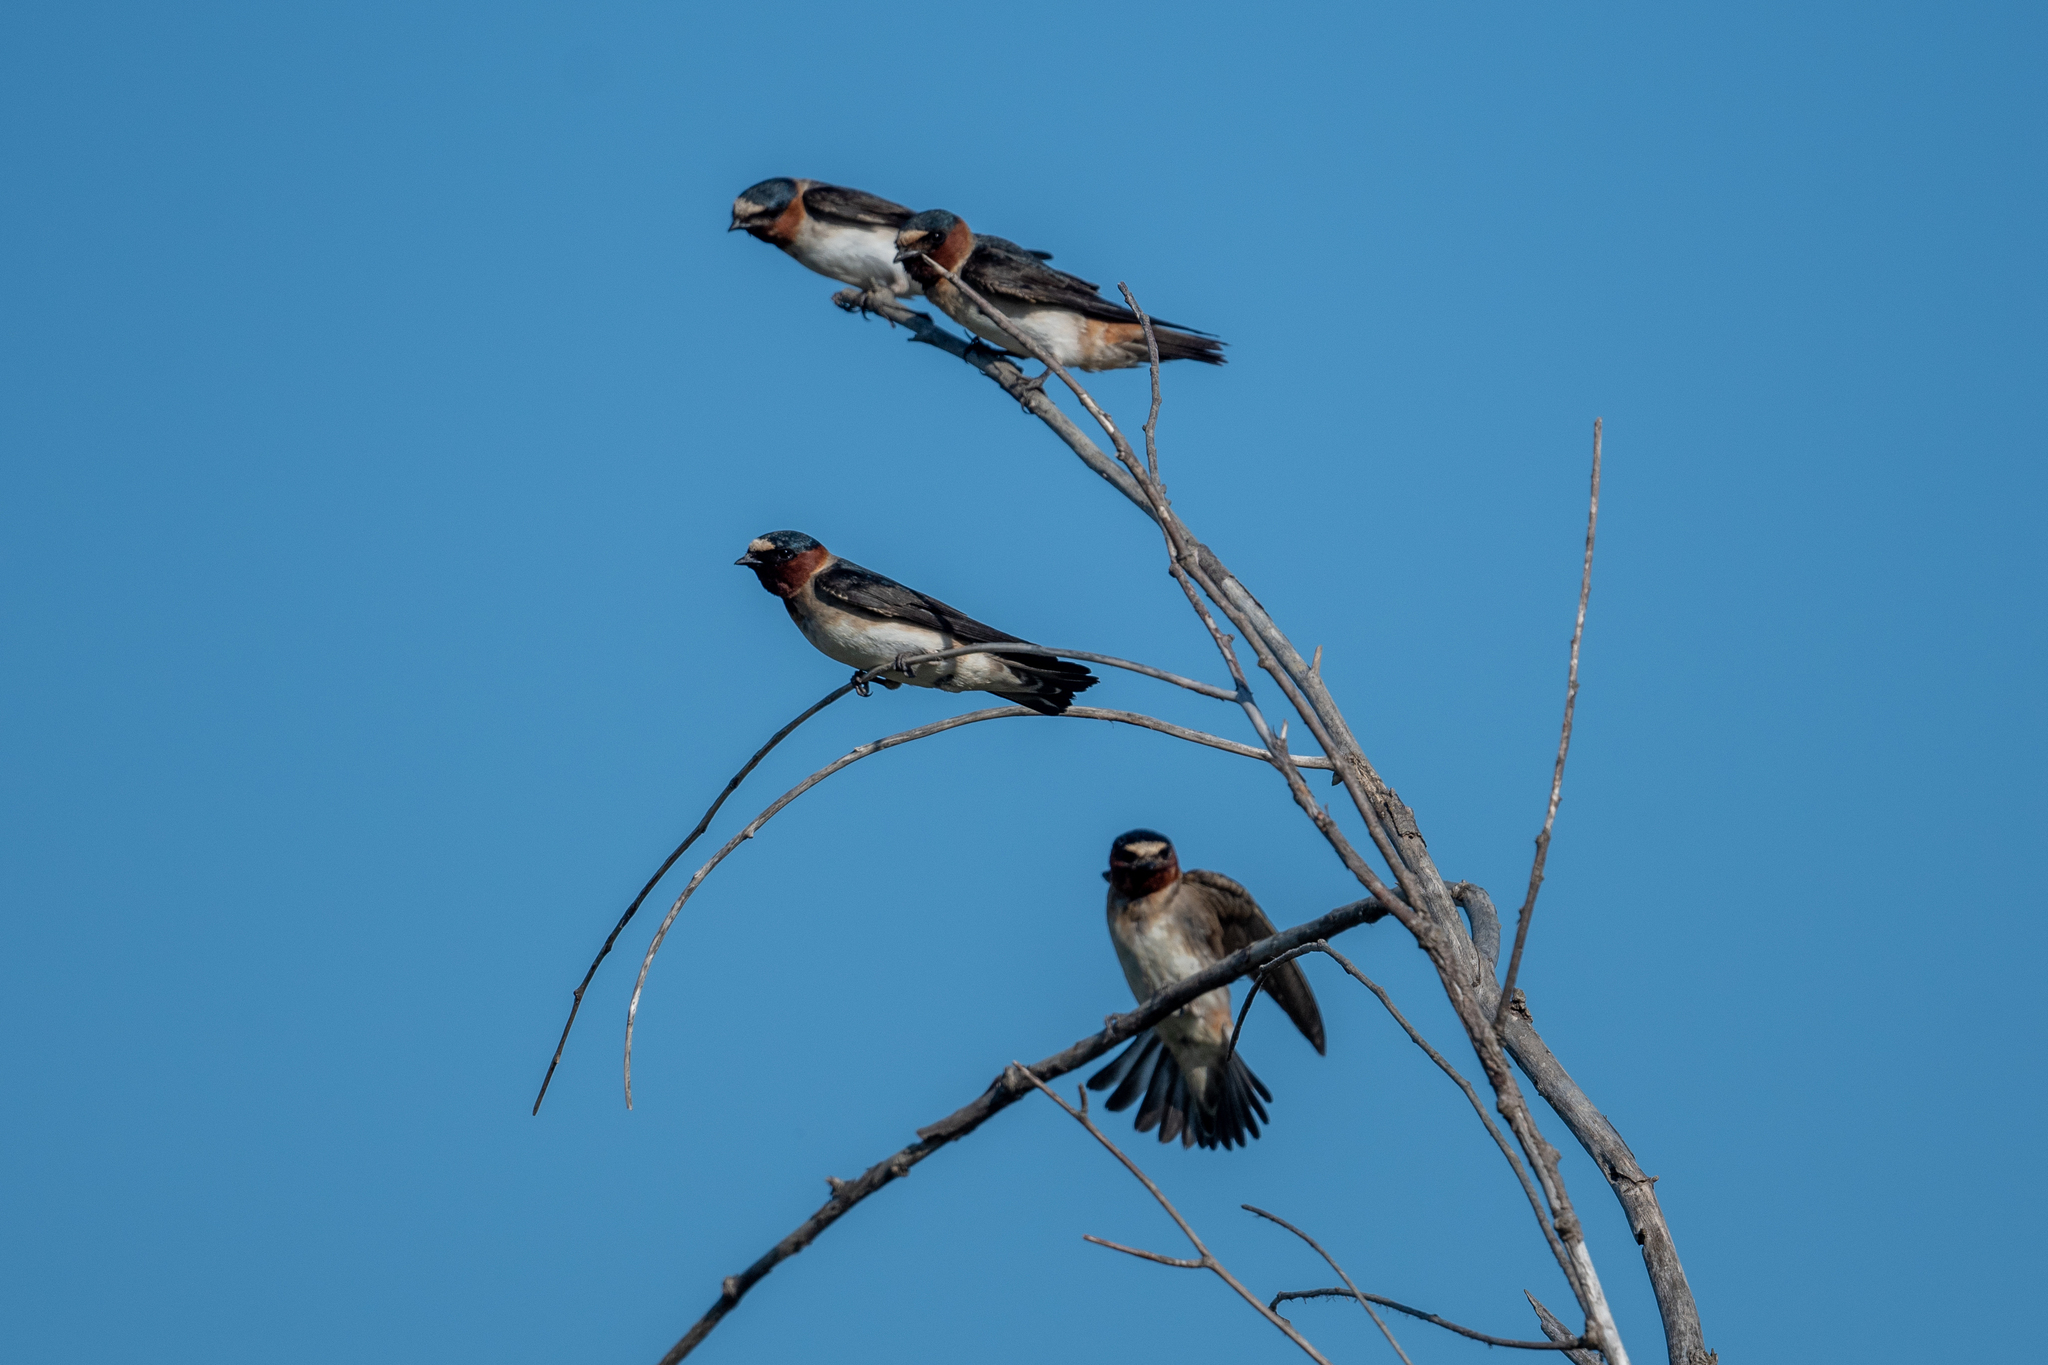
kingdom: Animalia
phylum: Chordata
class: Aves
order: Passeriformes
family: Hirundinidae
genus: Petrochelidon
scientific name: Petrochelidon pyrrhonota
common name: American cliff swallow
